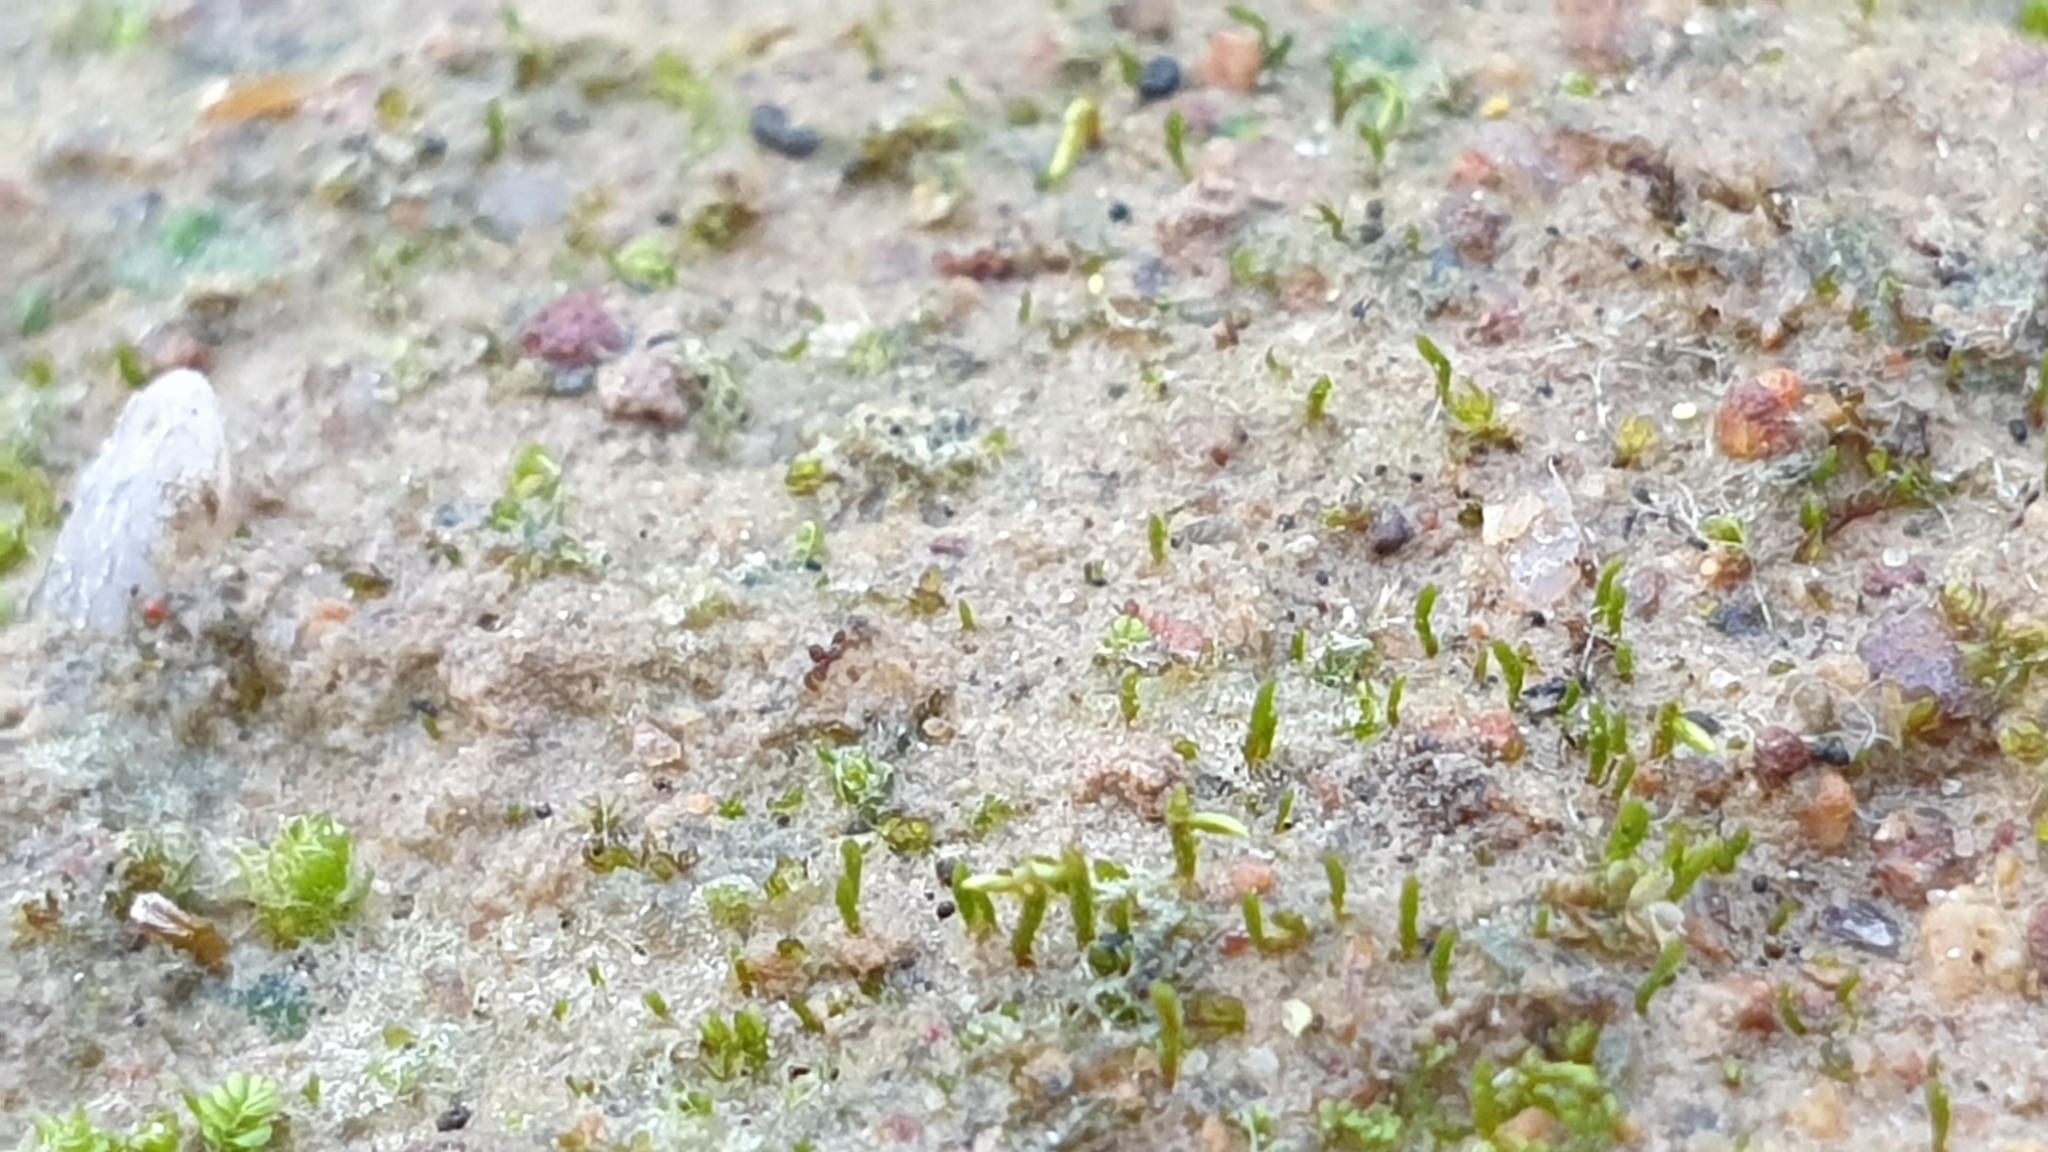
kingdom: Plantae
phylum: Bryophyta
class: Bryopsida
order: Dicranales
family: Dicranellaceae
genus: Eccremidium
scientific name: Eccremidium pulchellum
